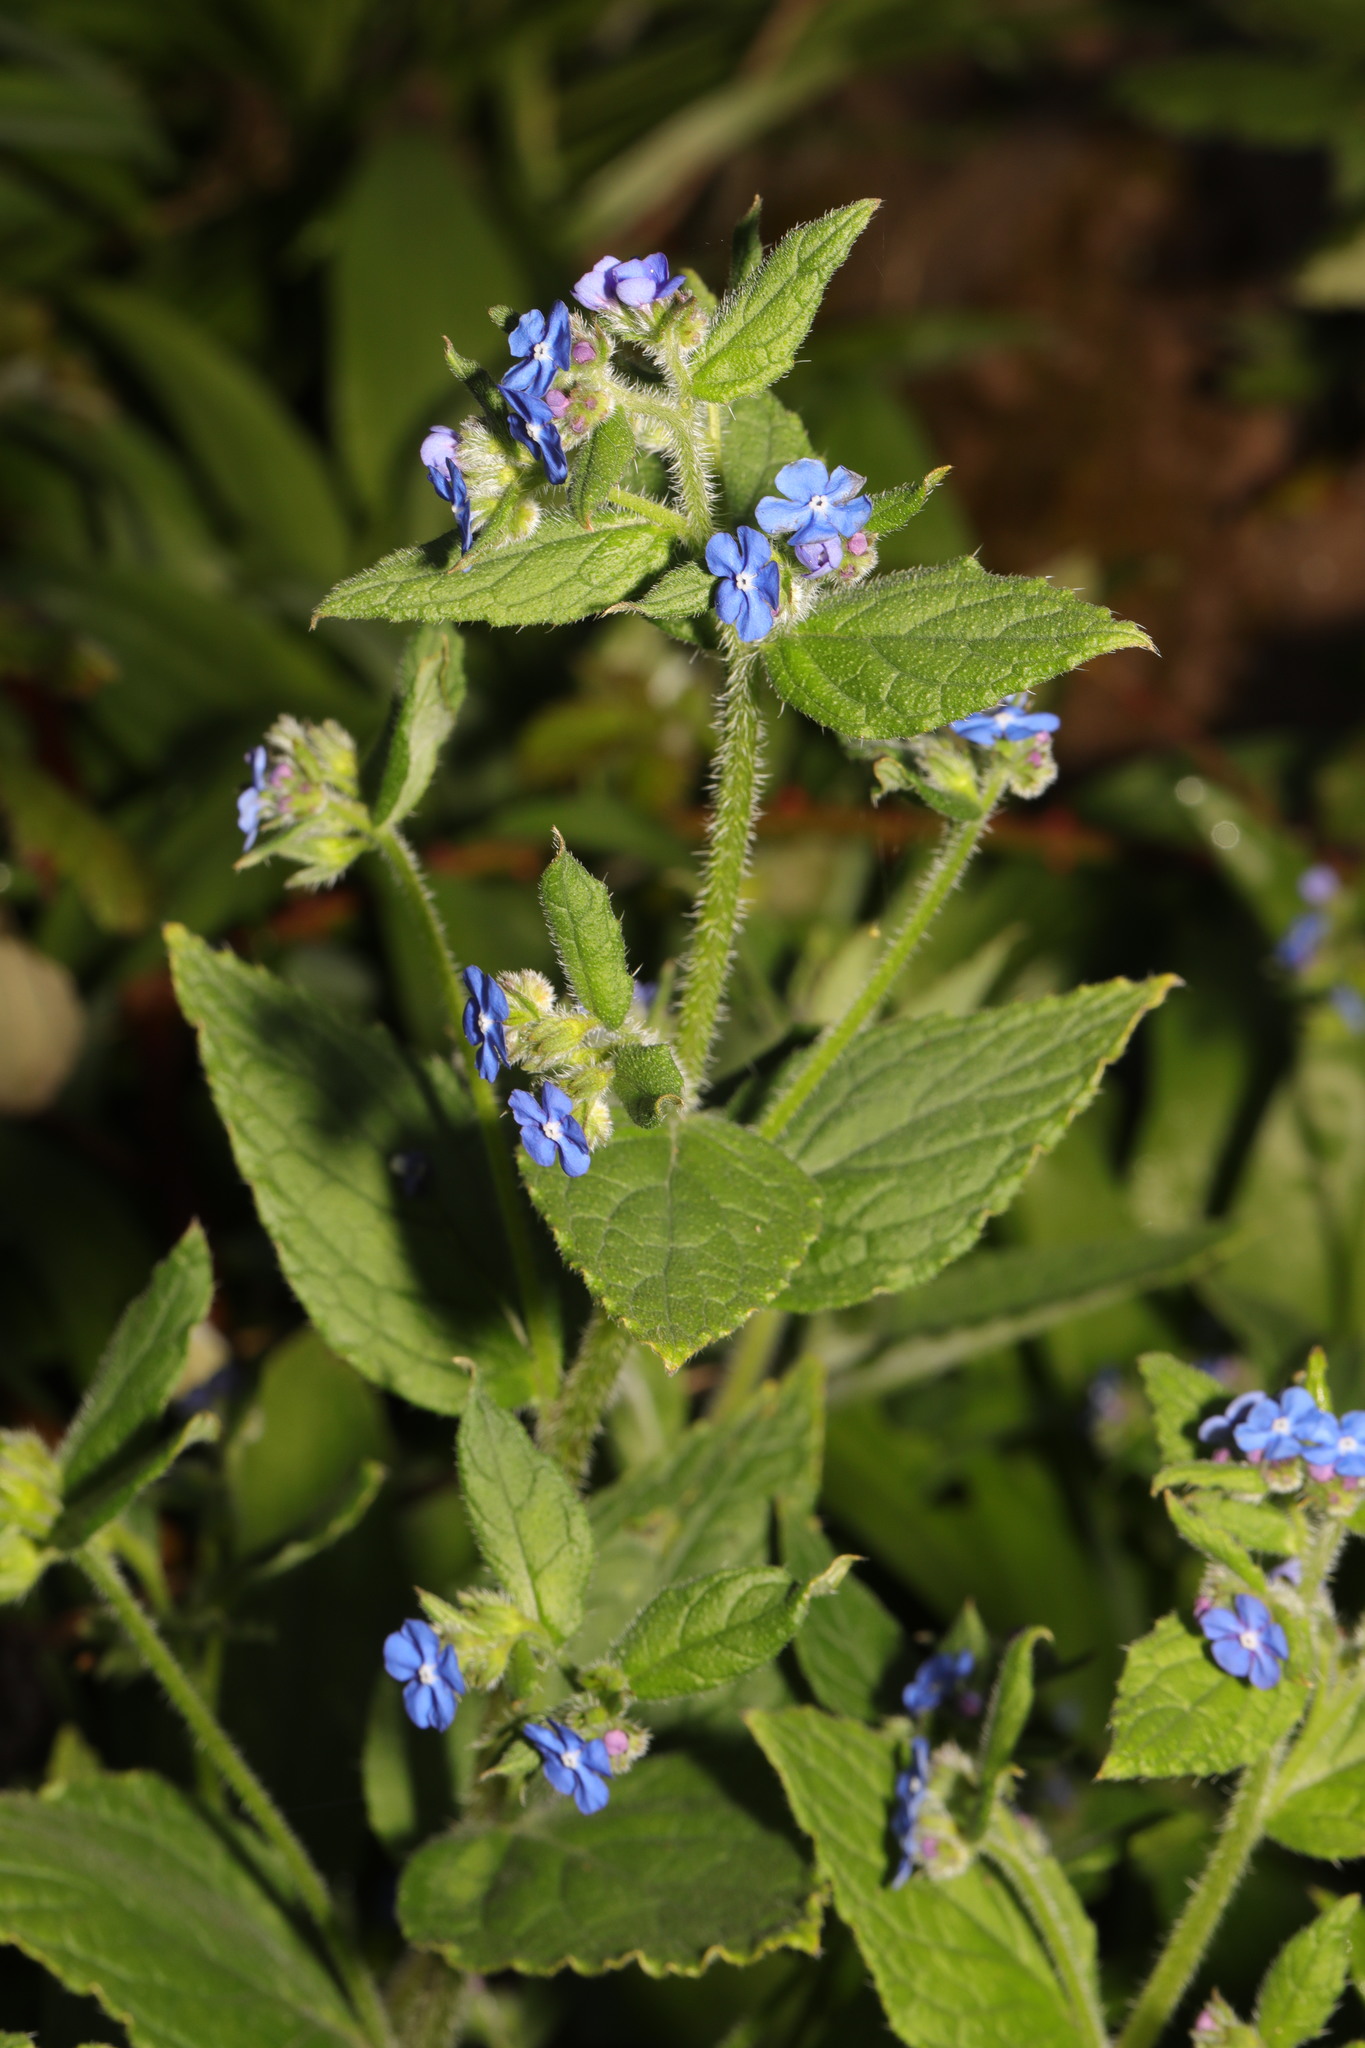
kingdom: Plantae
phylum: Tracheophyta
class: Magnoliopsida
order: Boraginales
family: Boraginaceae
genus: Pentaglottis
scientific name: Pentaglottis sempervirens
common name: Green alkanet
